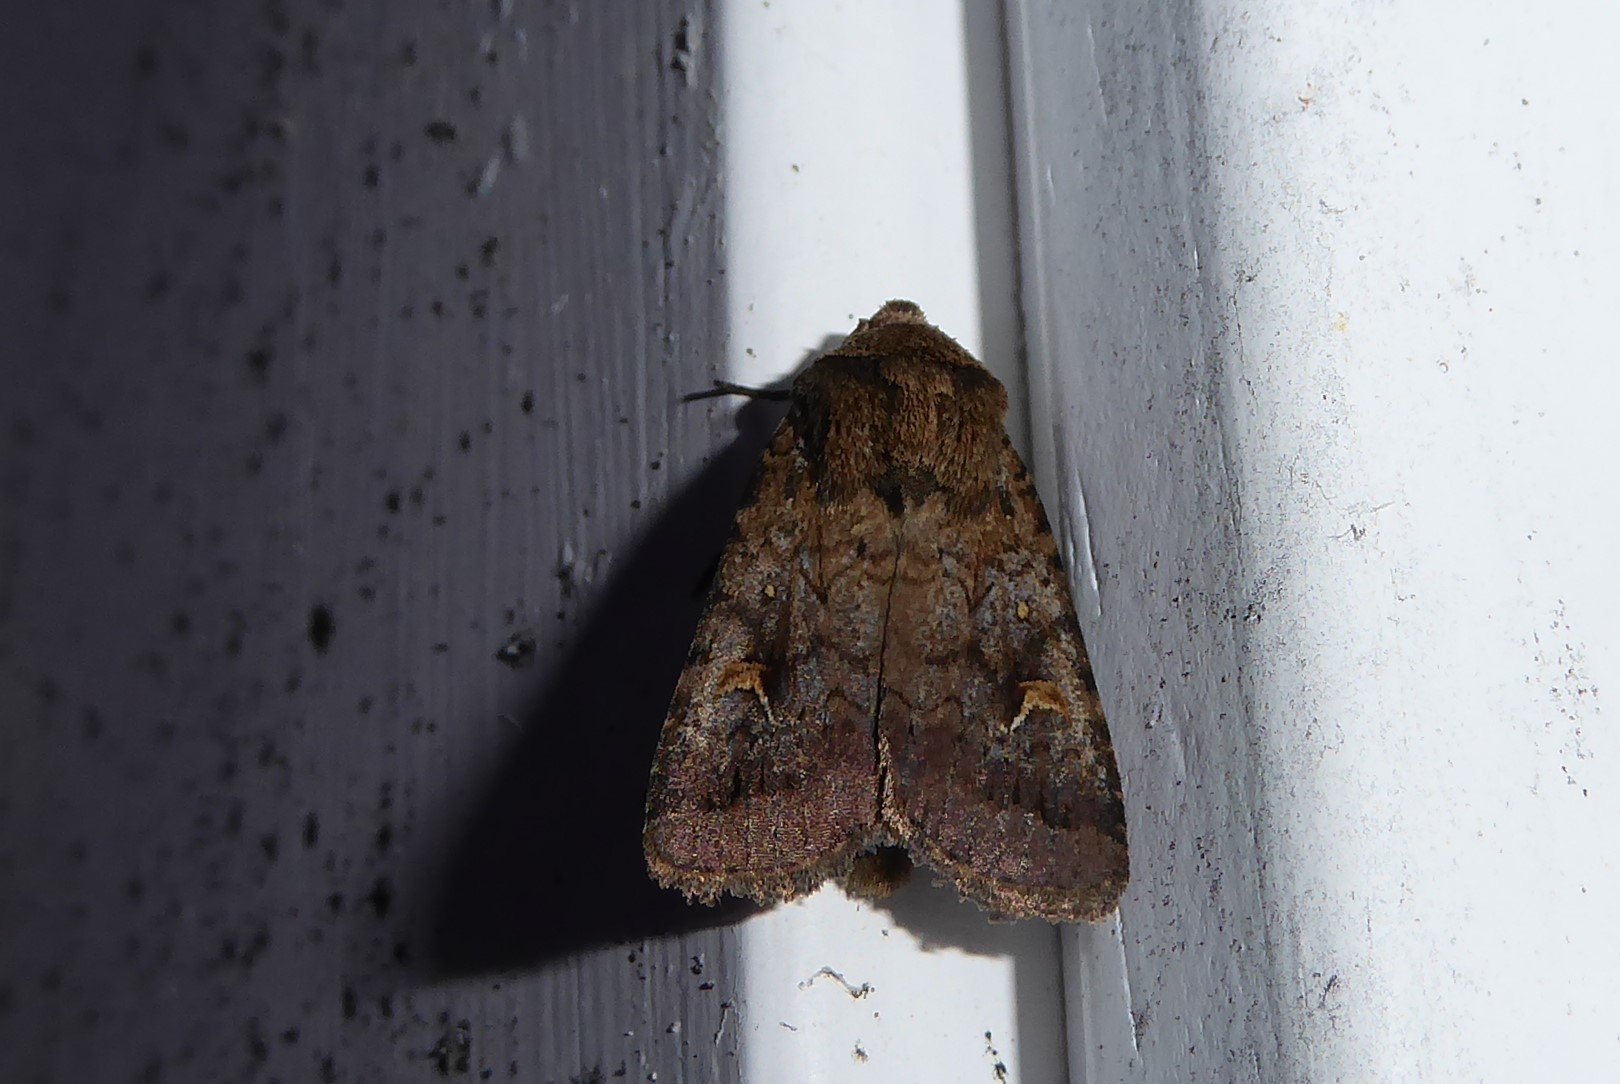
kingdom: Animalia
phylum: Arthropoda
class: Insecta
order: Lepidoptera
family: Noctuidae
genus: Proteuxoa
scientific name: Proteuxoa tetronycha
